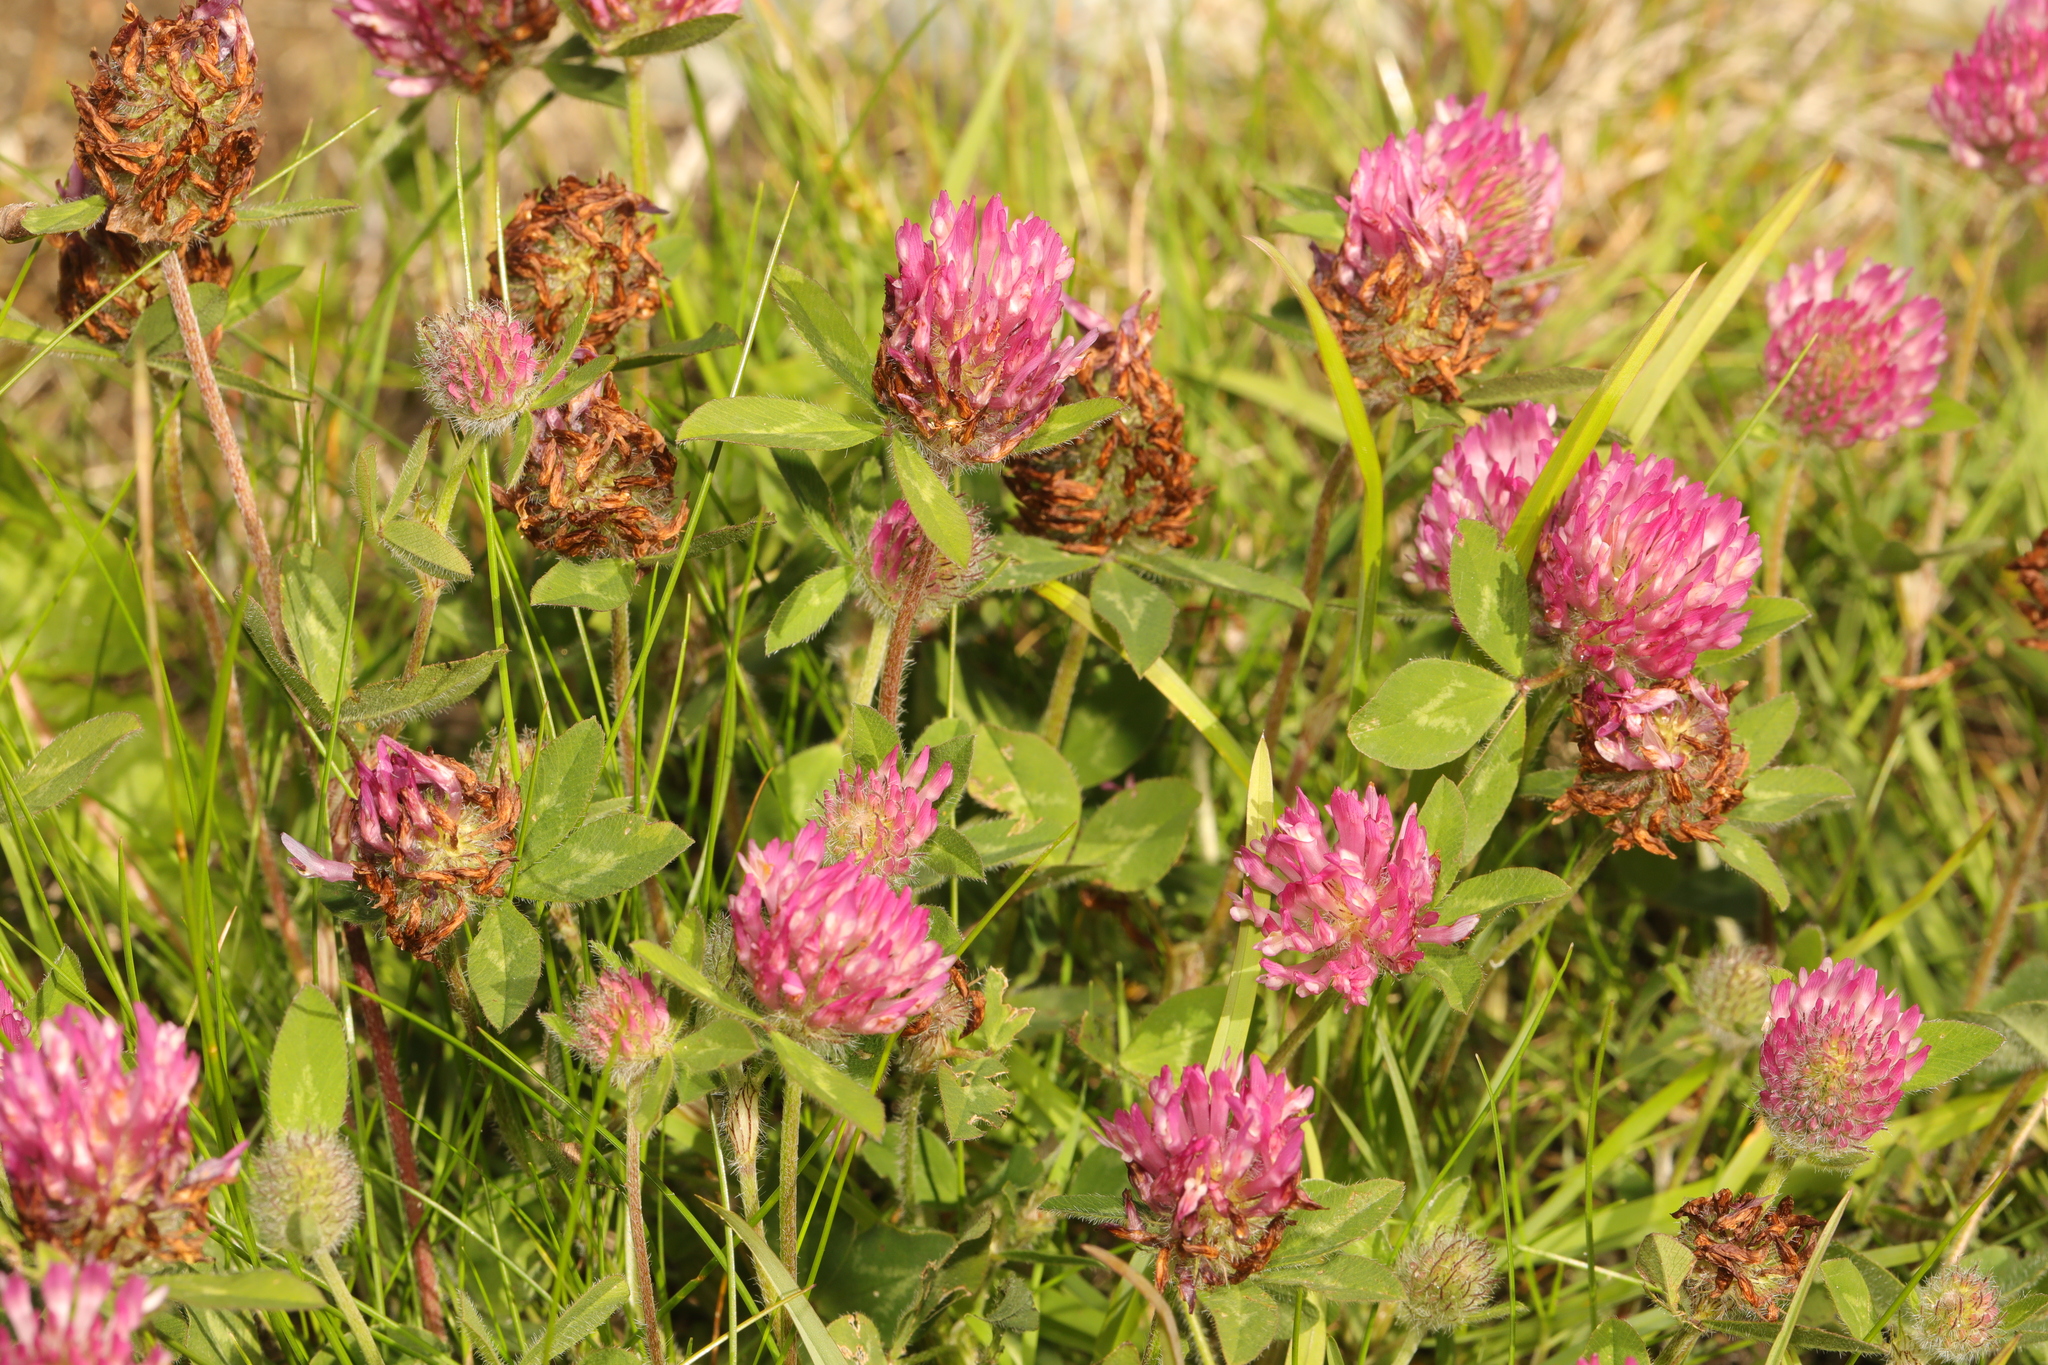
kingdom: Plantae
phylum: Tracheophyta
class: Magnoliopsida
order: Fabales
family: Fabaceae
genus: Trifolium
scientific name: Trifolium pratense
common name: Red clover
